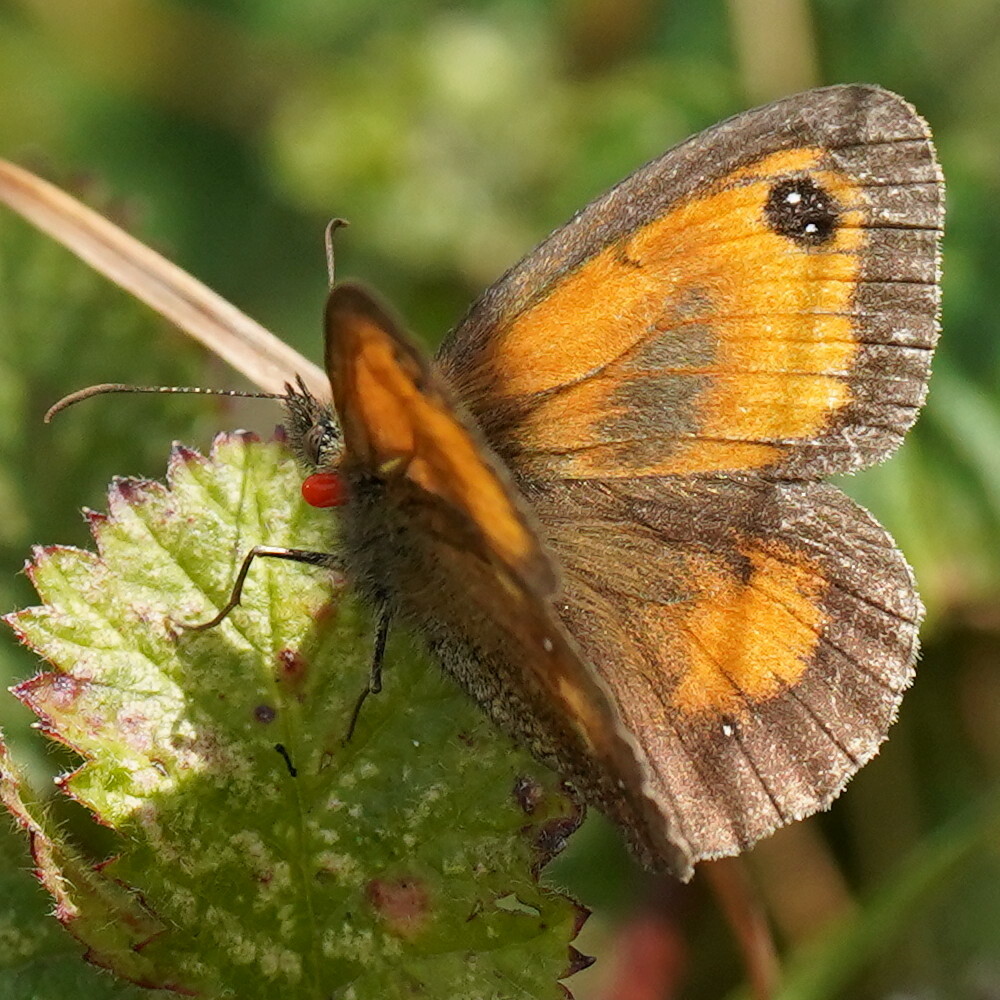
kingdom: Animalia
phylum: Arthropoda
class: Insecta
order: Lepidoptera
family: Nymphalidae
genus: Pyronia
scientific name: Pyronia tithonus
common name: Gatekeeper
